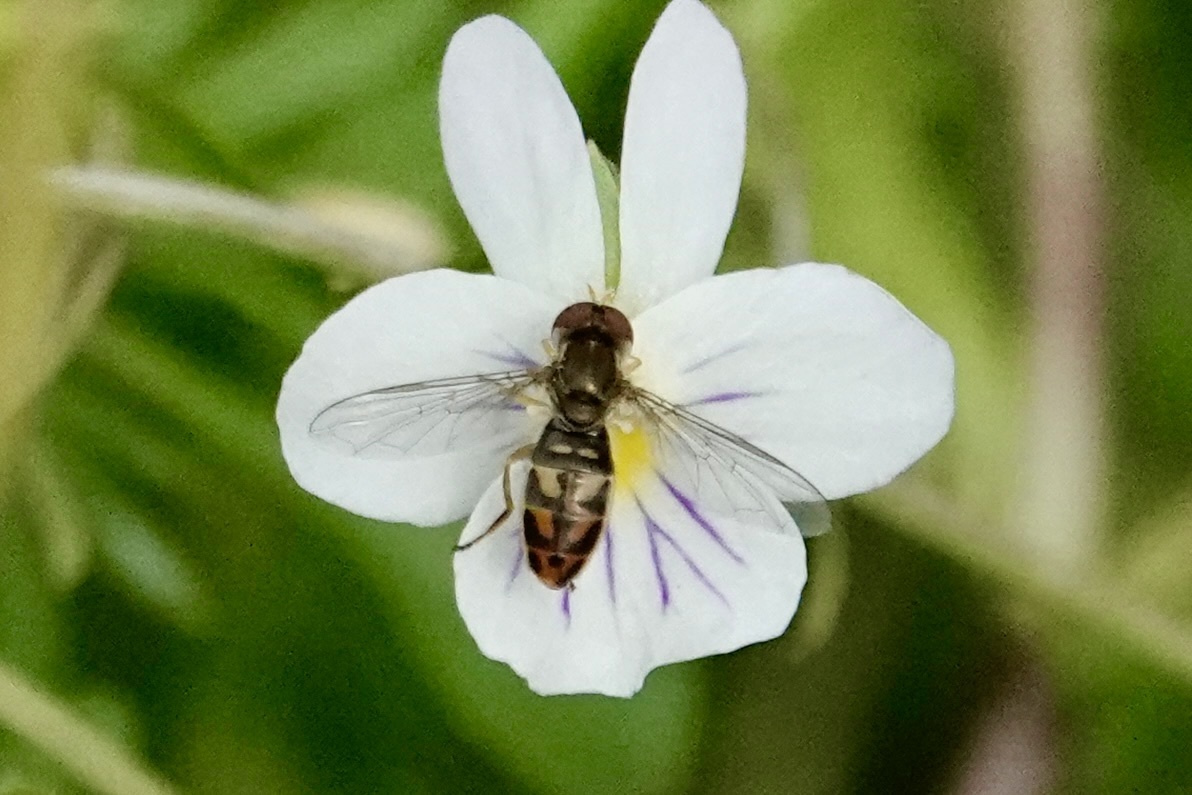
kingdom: Animalia
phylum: Arthropoda
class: Insecta
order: Diptera
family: Syrphidae
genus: Toxomerus
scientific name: Toxomerus marginatus
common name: Syrphid fly
